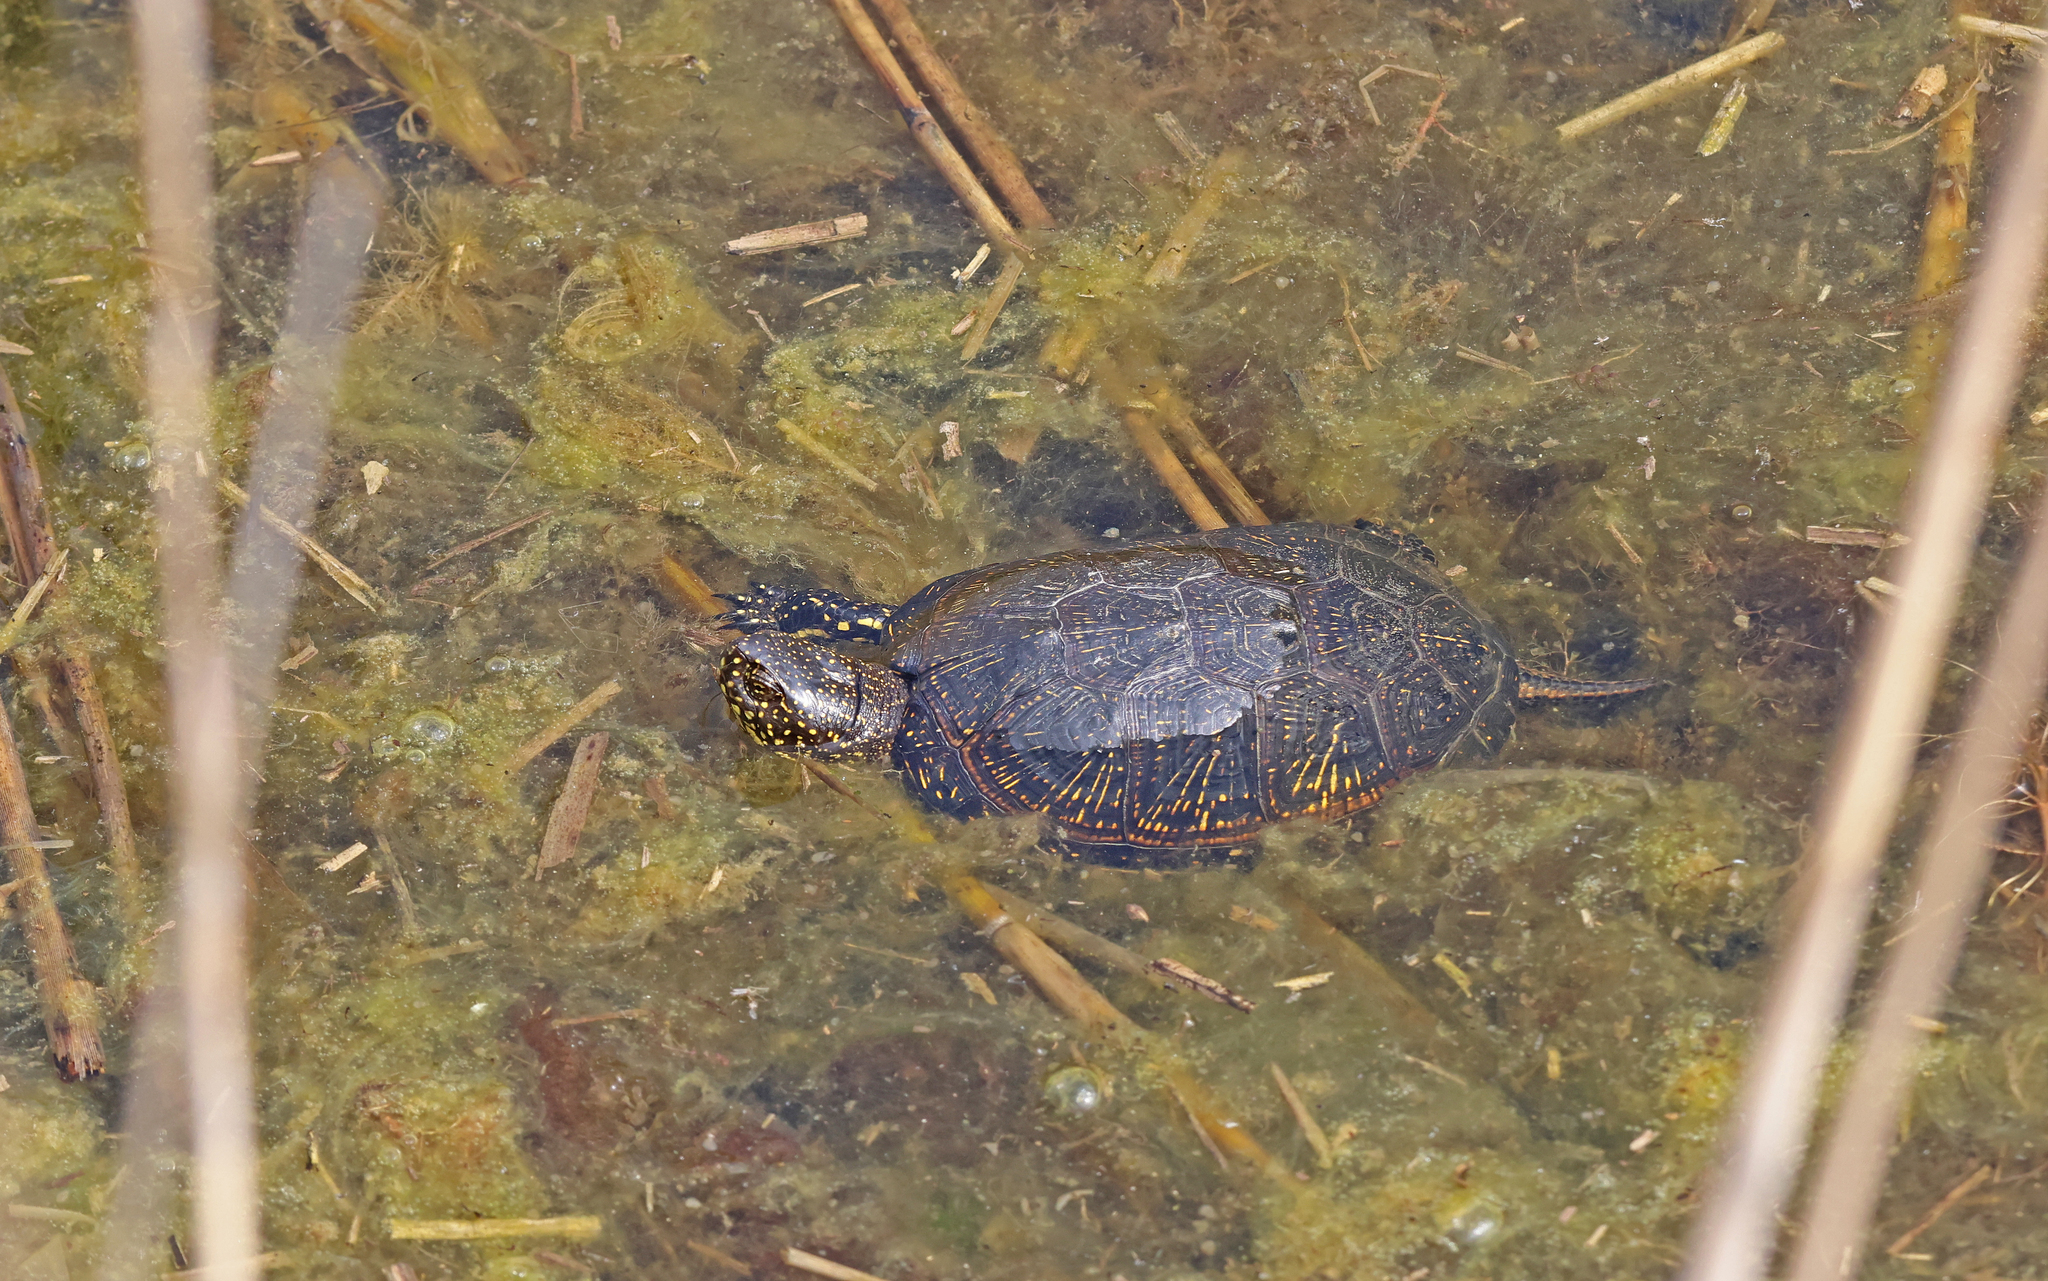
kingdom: Animalia
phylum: Chordata
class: Testudines
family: Emydidae
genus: Emys
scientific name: Emys orbicularis
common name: European pond turtle
